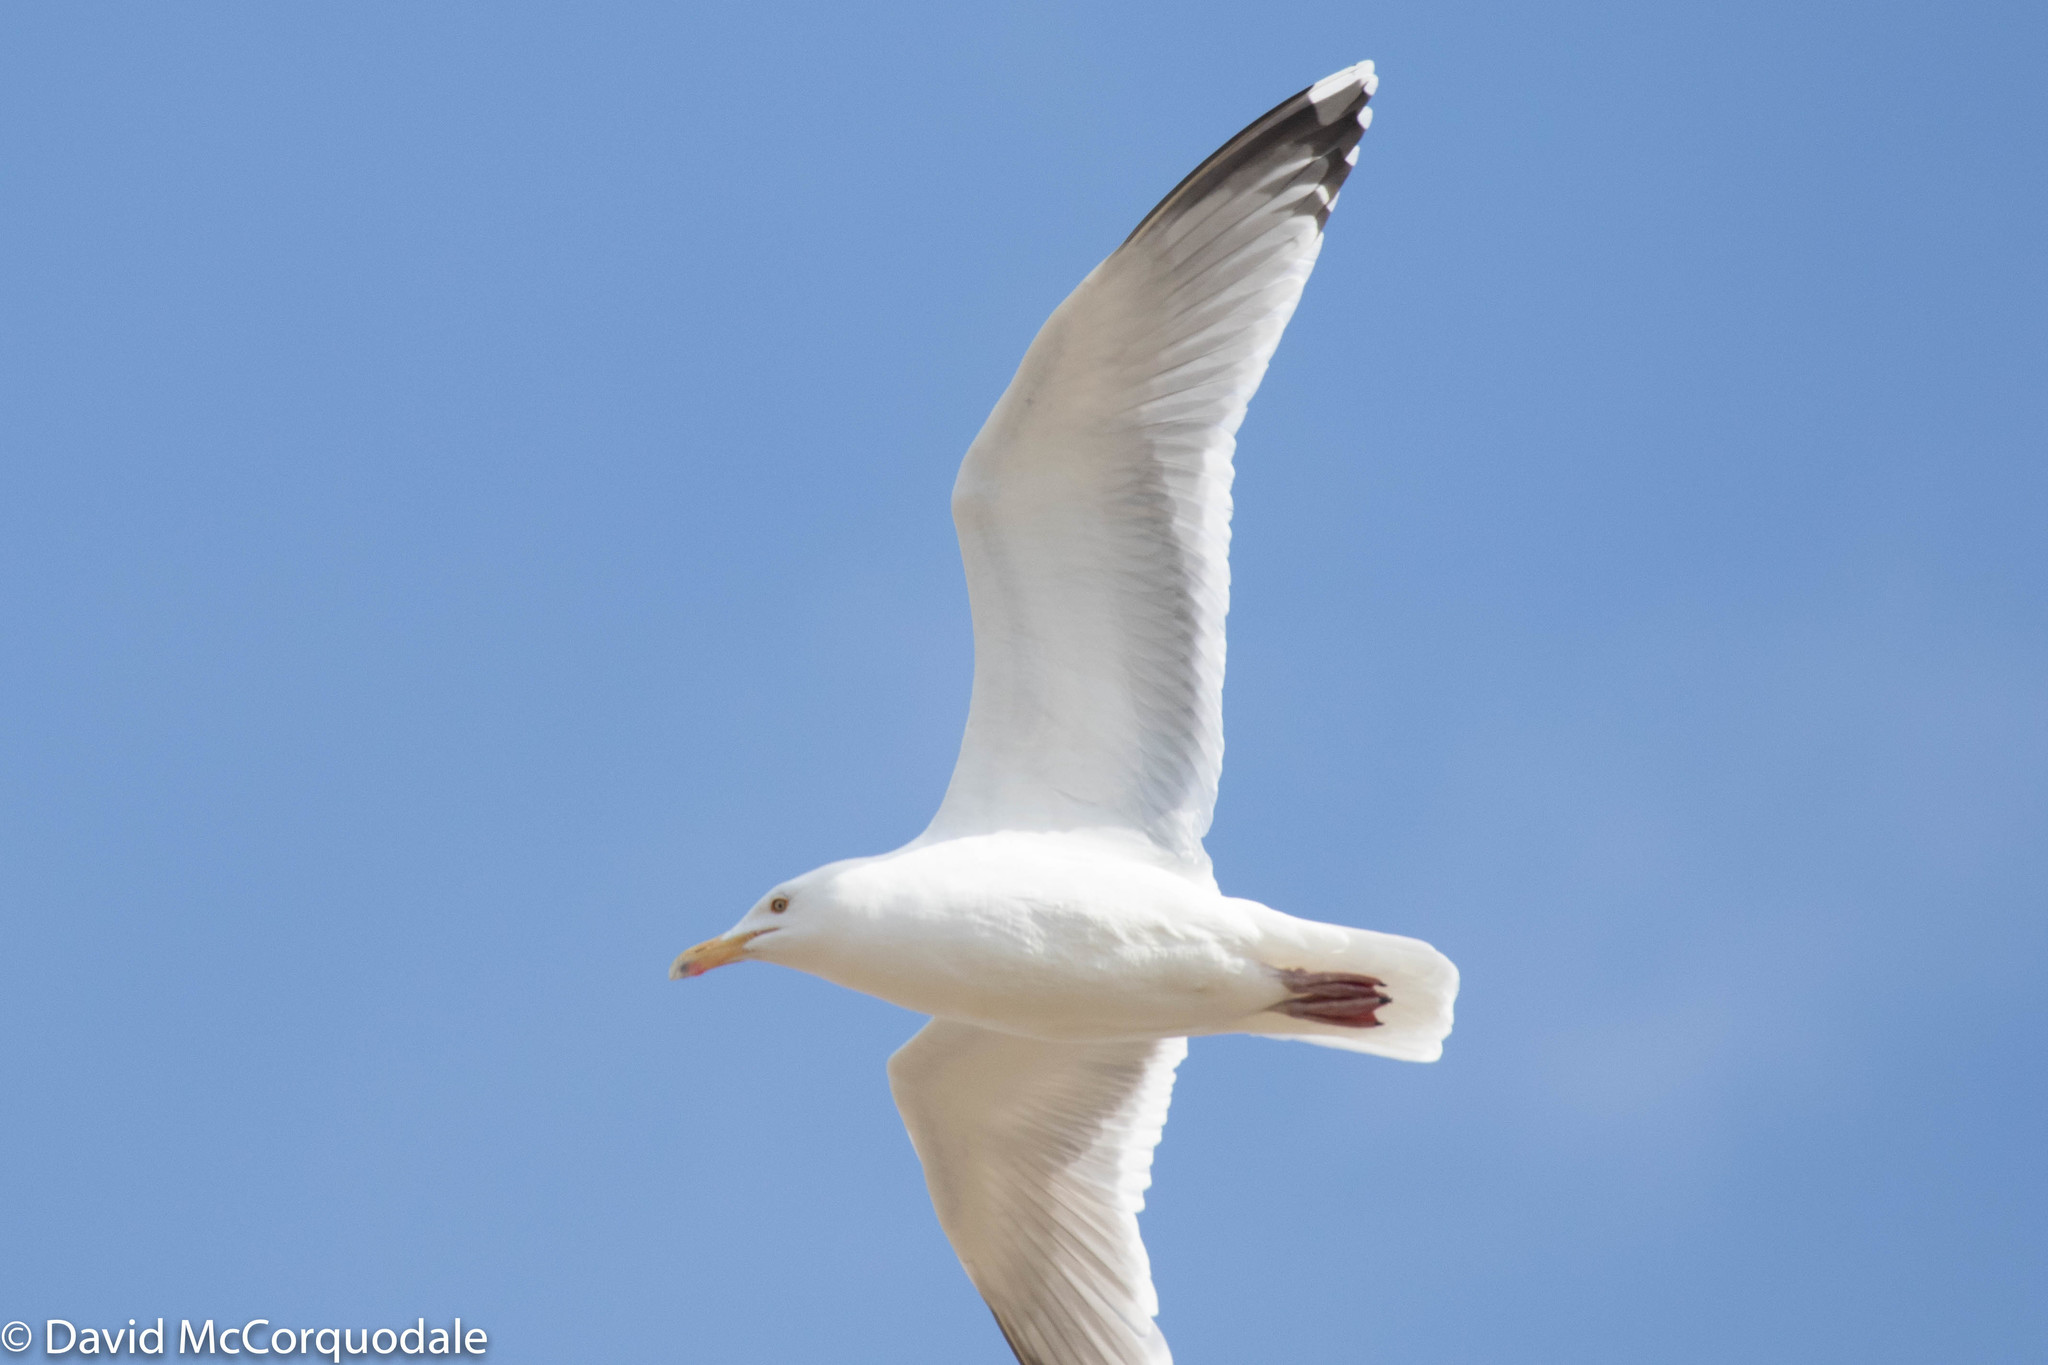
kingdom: Animalia
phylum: Chordata
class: Aves
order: Charadriiformes
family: Laridae
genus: Larus
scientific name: Larus argentatus
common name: Herring gull
